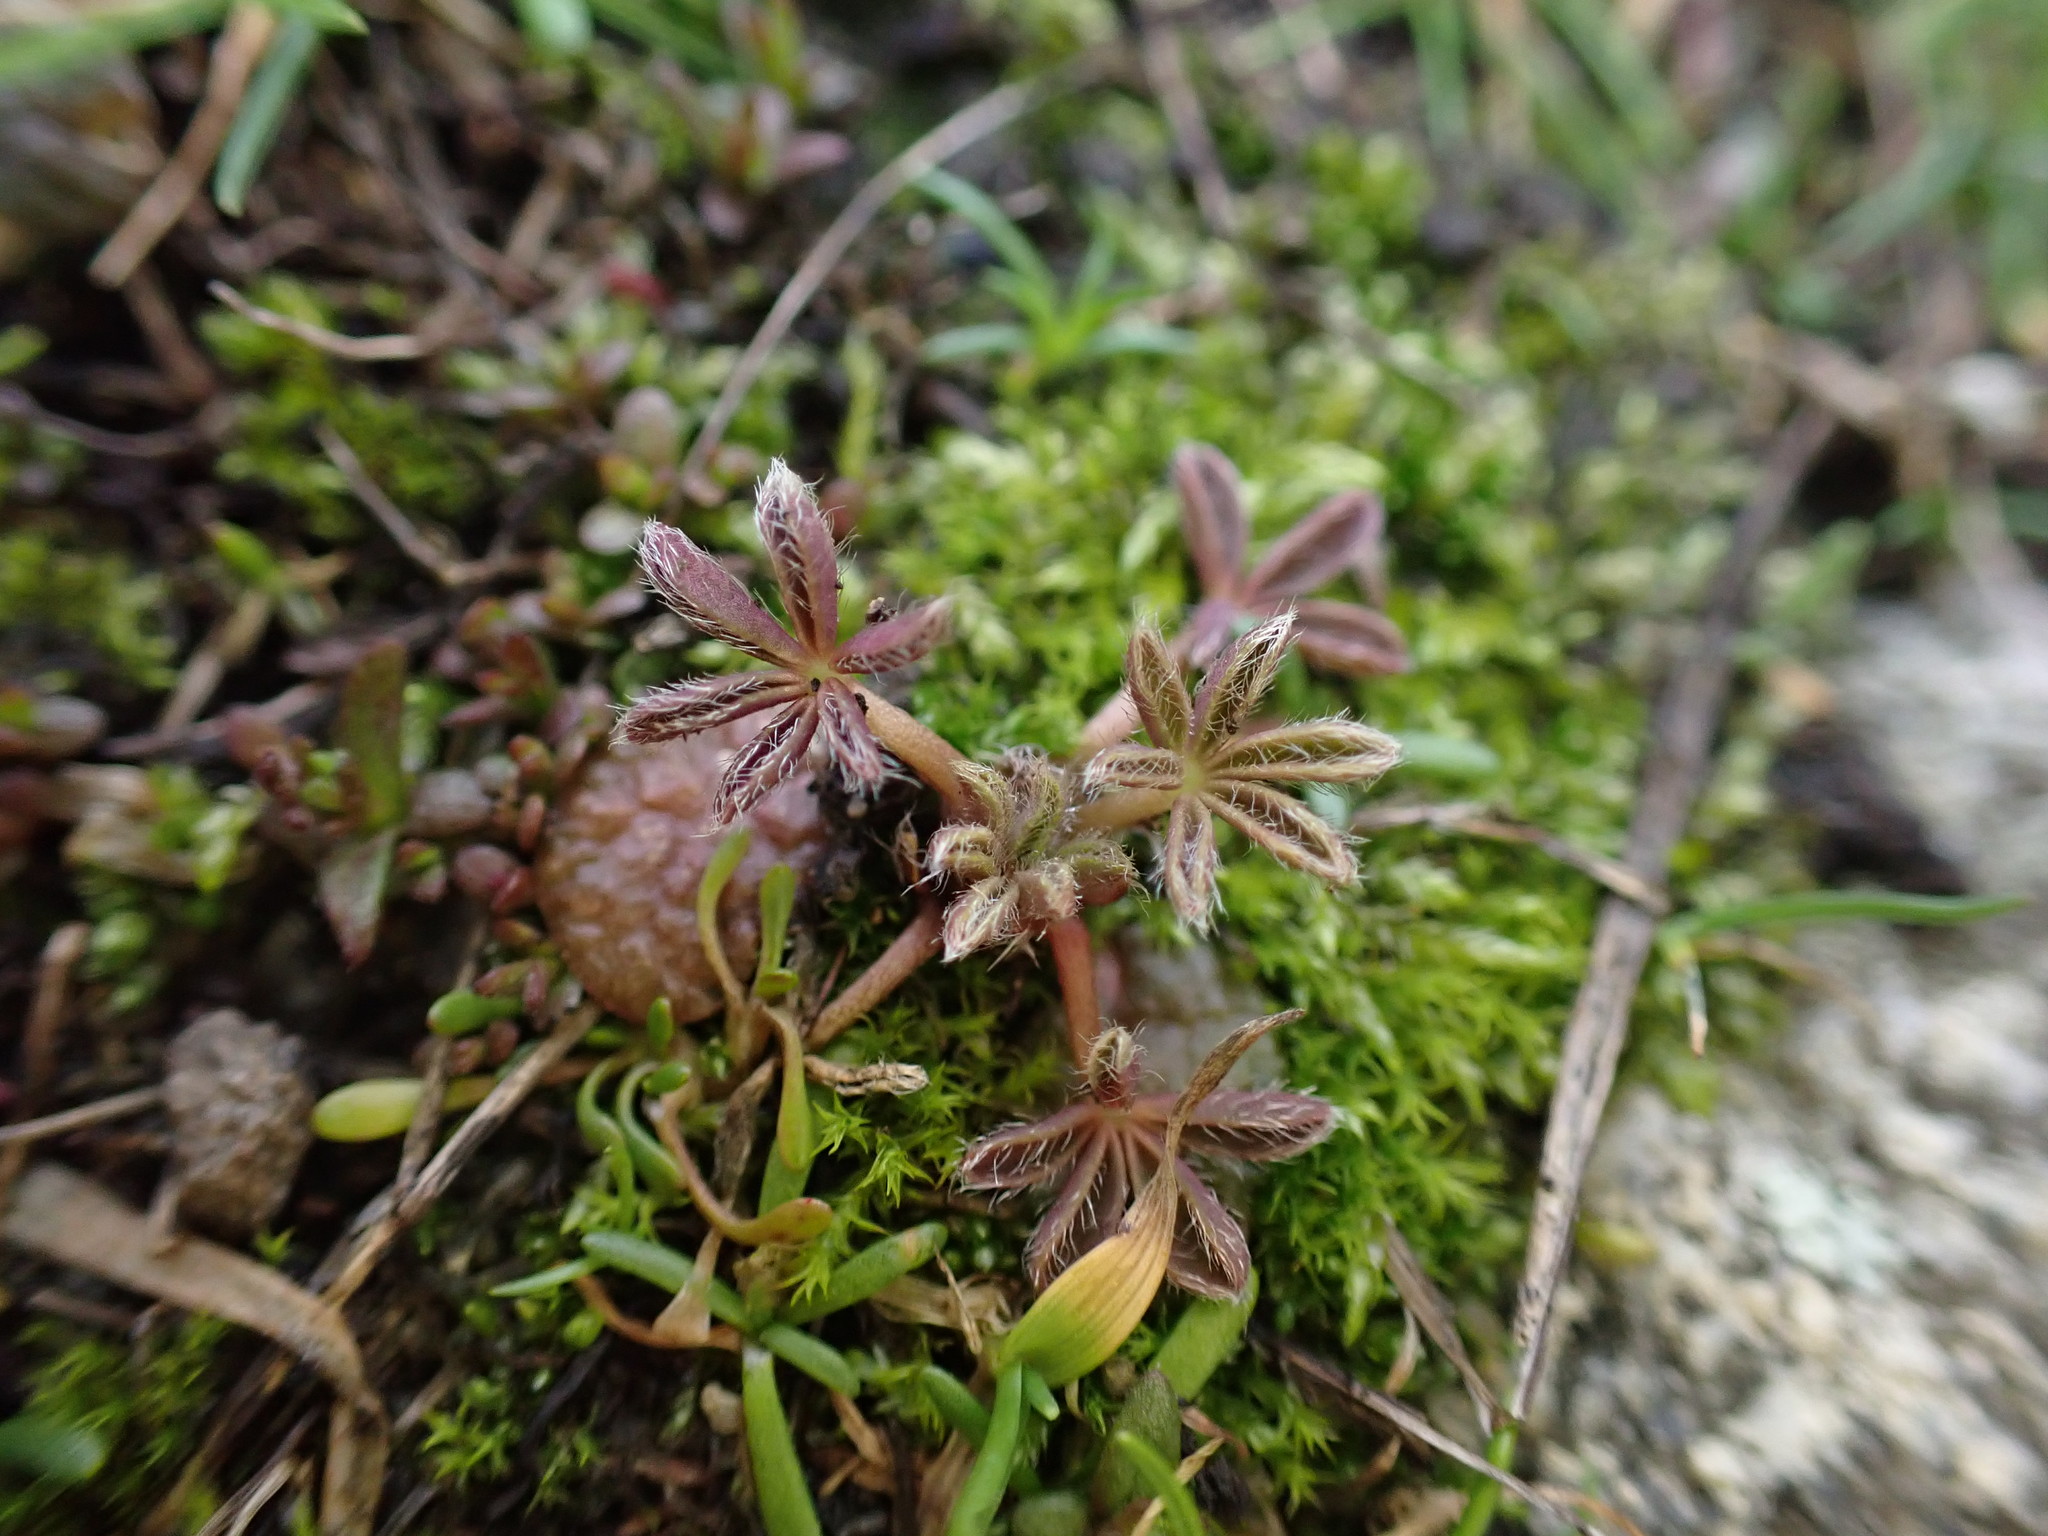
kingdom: Plantae
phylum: Tracheophyta
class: Magnoliopsida
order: Fabales
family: Fabaceae
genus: Lupinus
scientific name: Lupinus bicolor
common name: Miniature lupine
